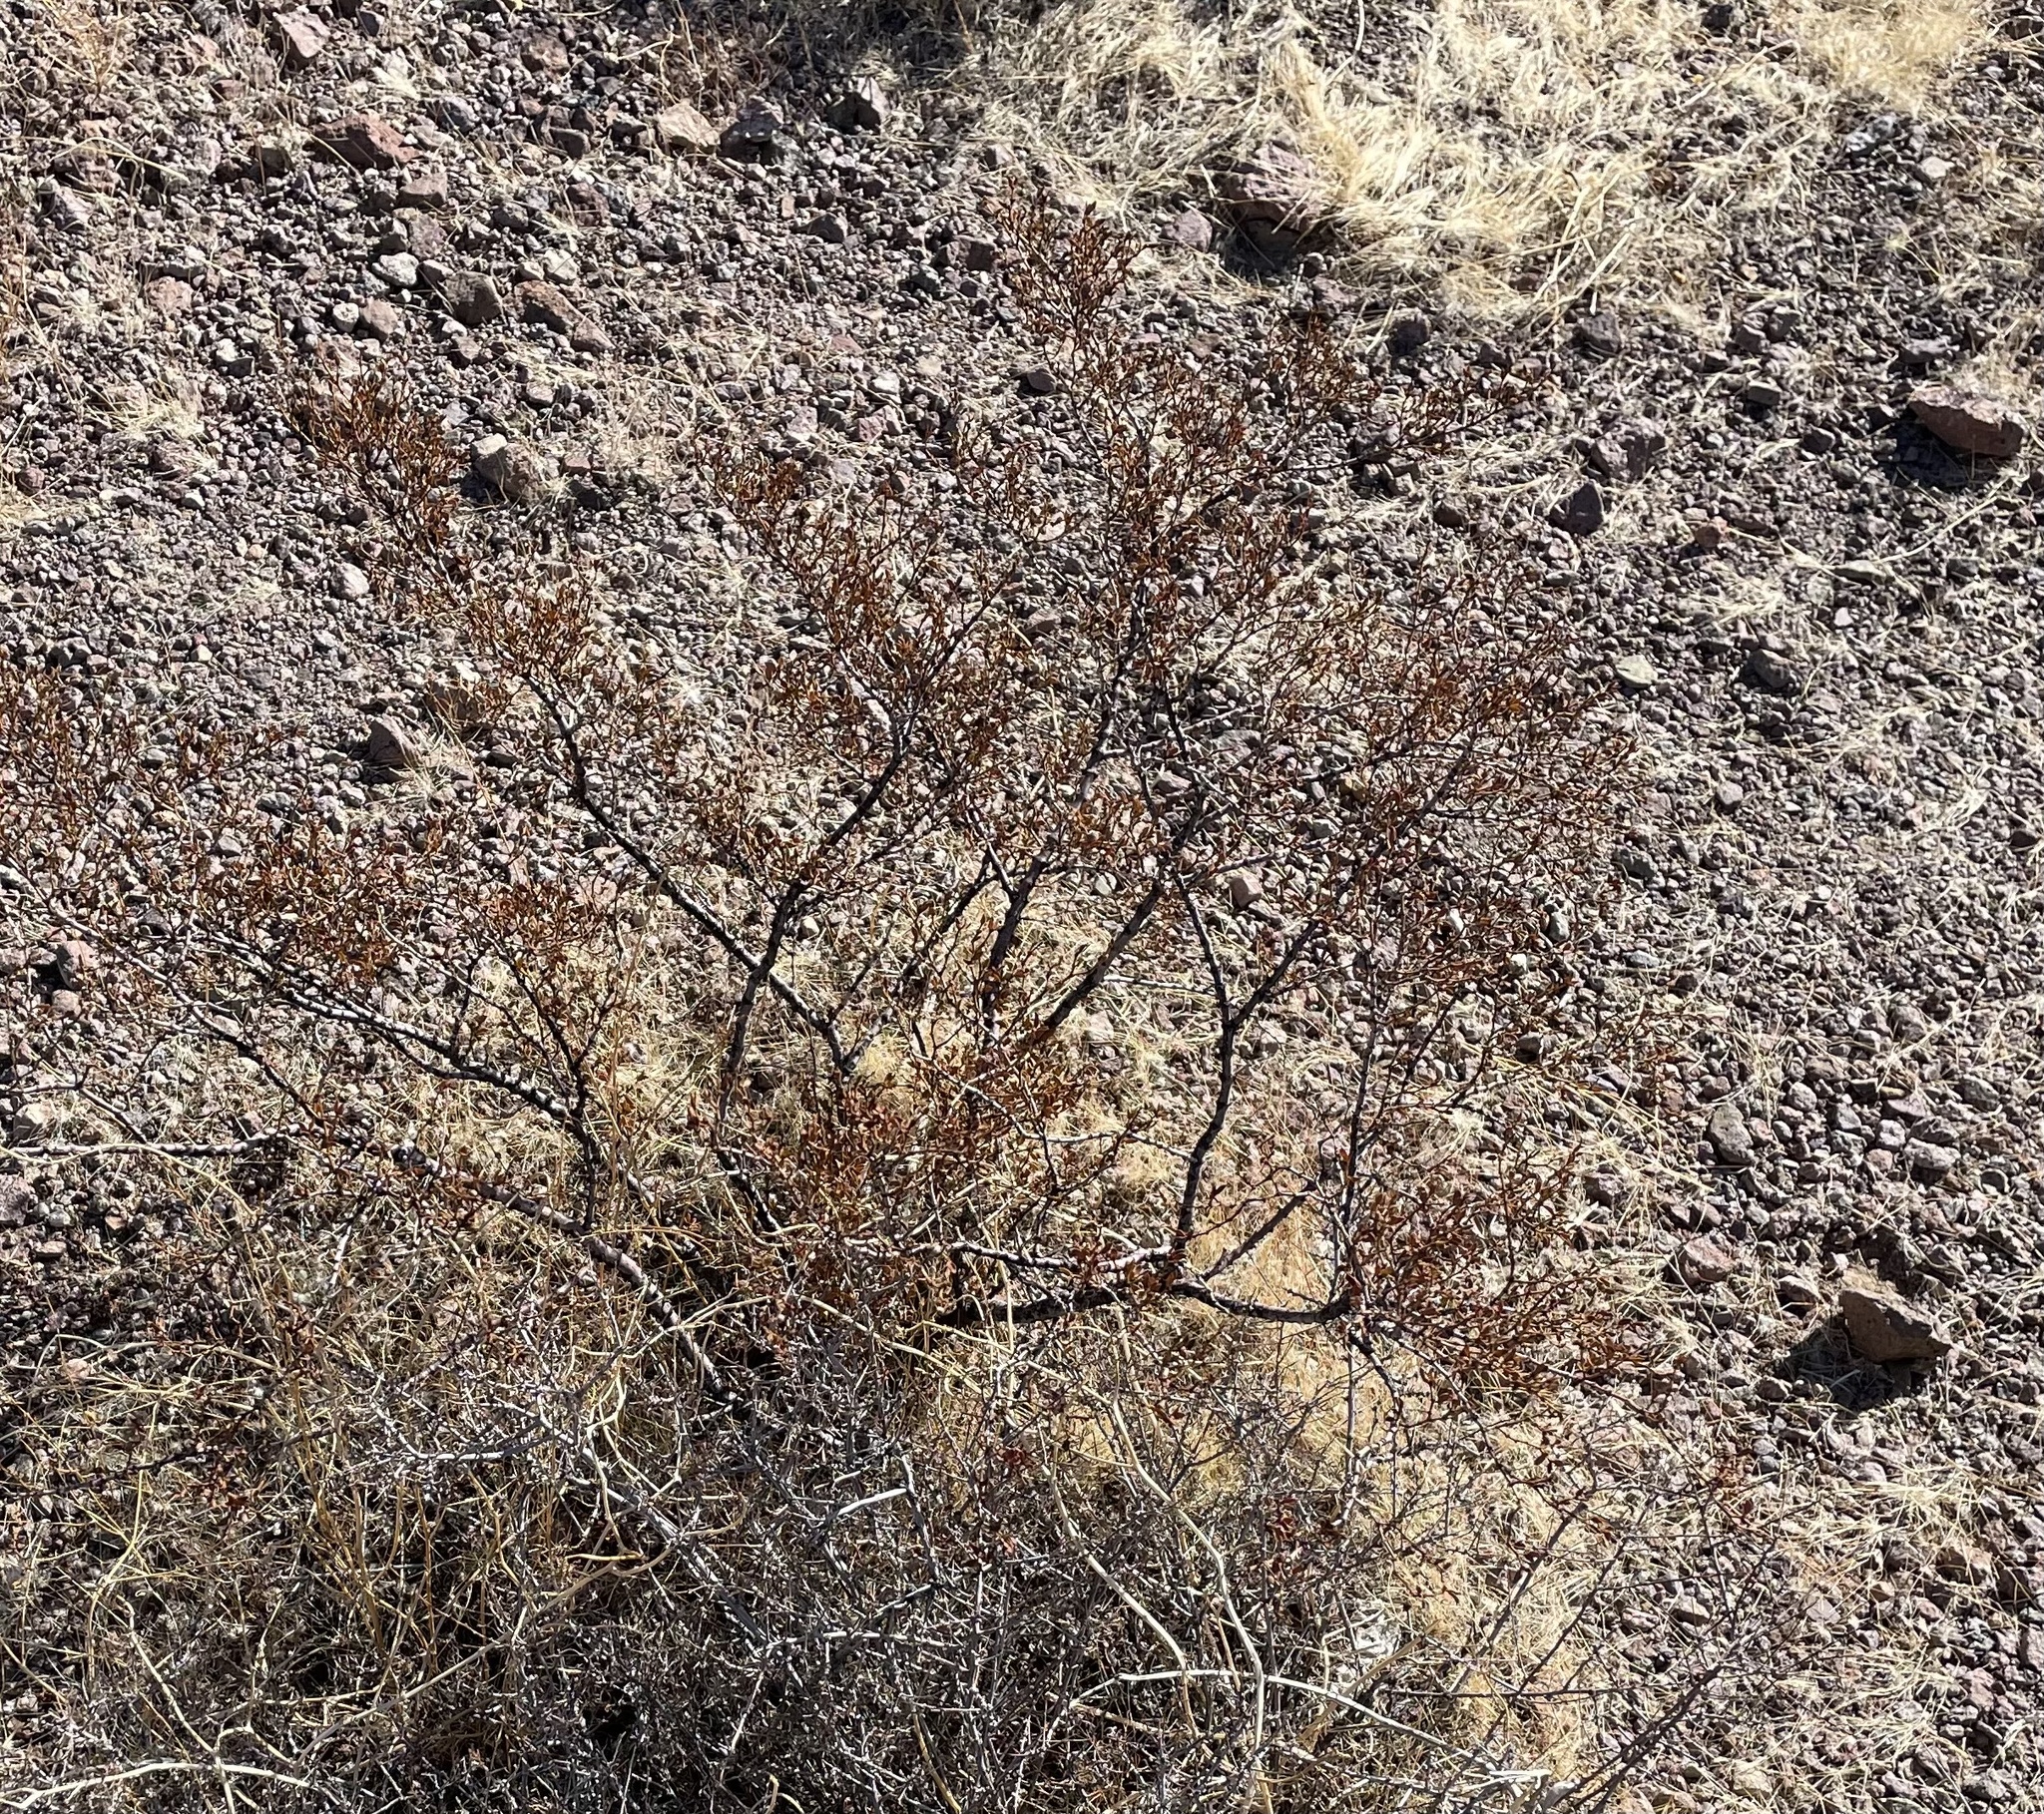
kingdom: Plantae
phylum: Tracheophyta
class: Magnoliopsida
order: Zygophyllales
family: Zygophyllaceae
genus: Larrea
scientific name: Larrea tridentata
